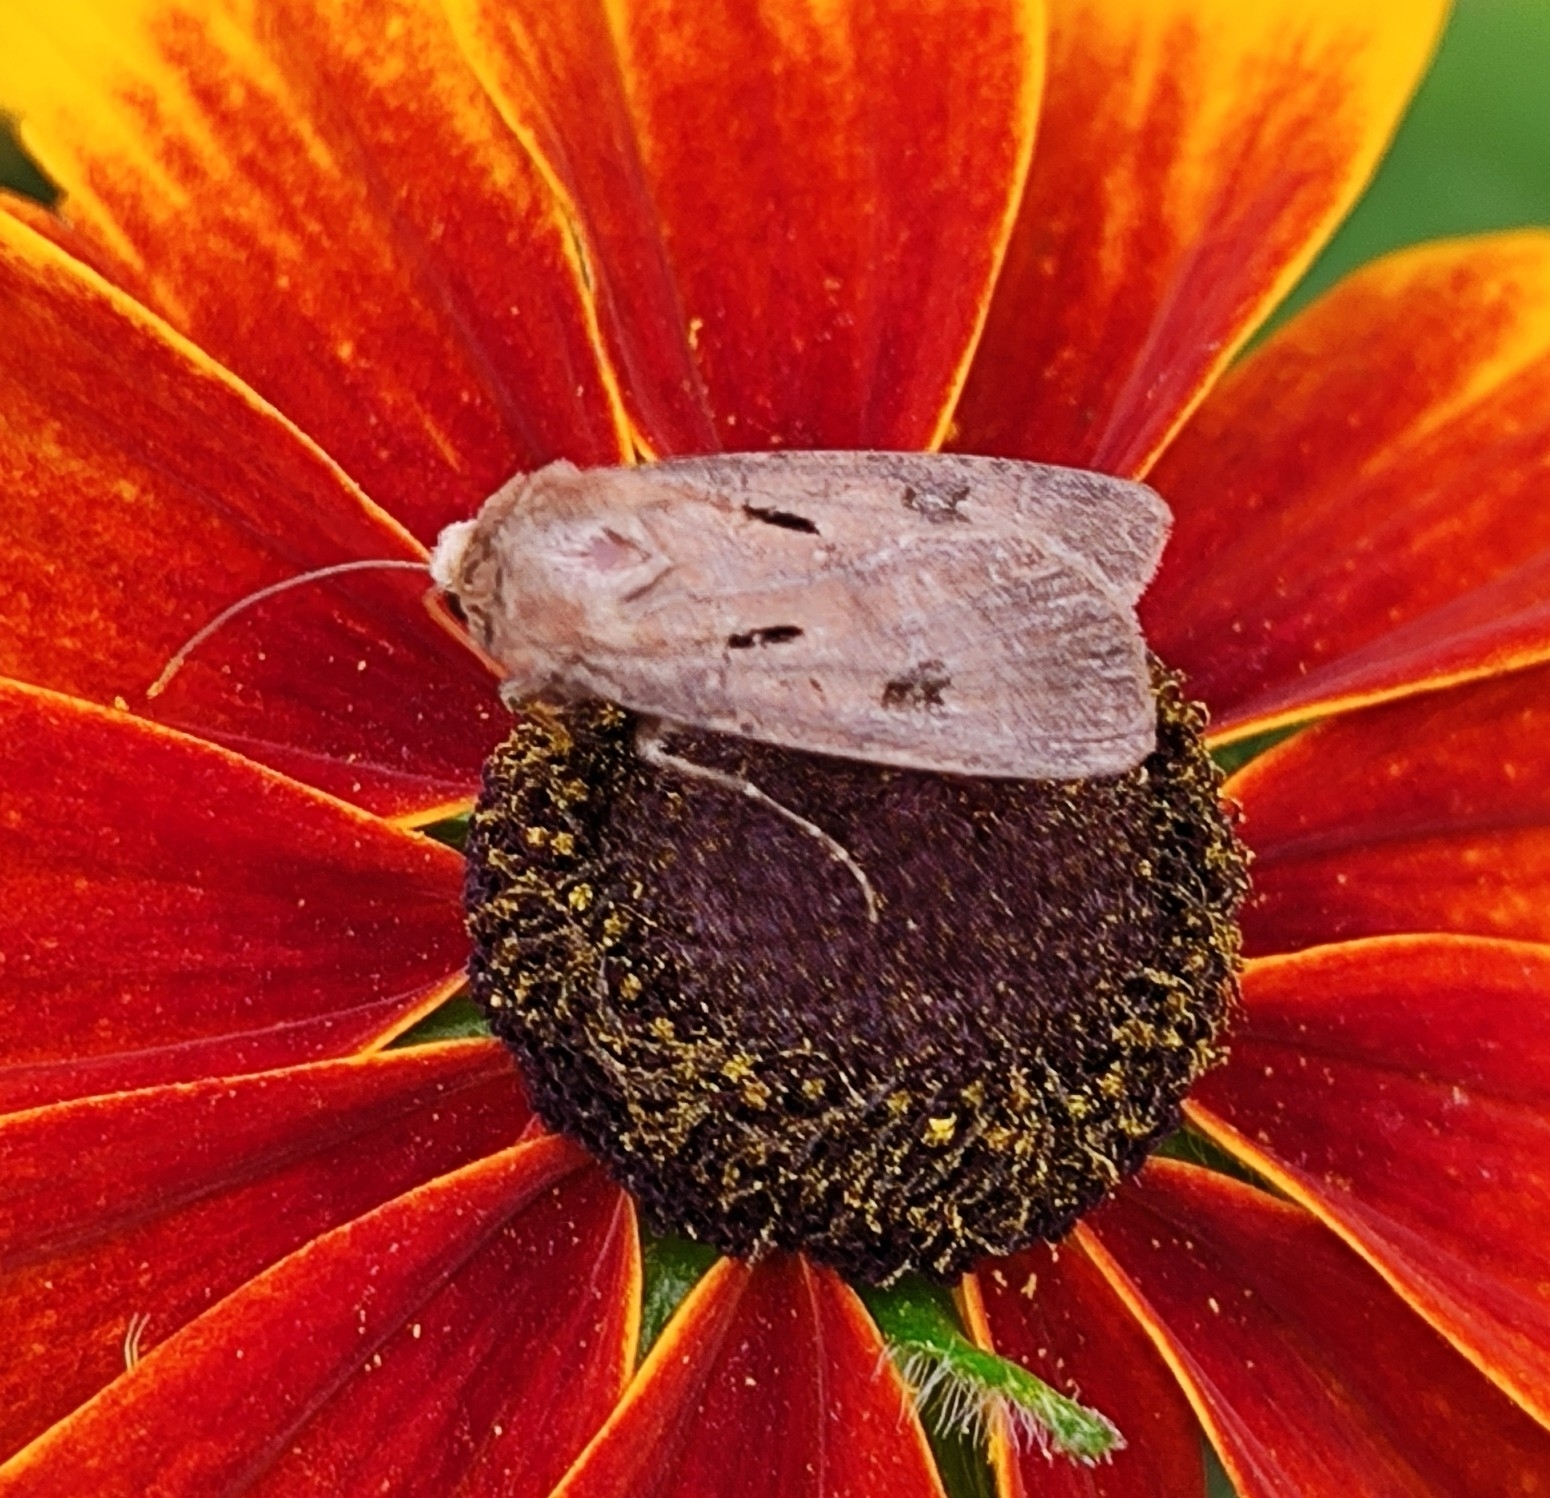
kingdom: Animalia
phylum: Arthropoda
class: Insecta
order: Lepidoptera
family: Noctuidae
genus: Agrotis
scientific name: Agrotis exclamationis
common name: Heart and dart
